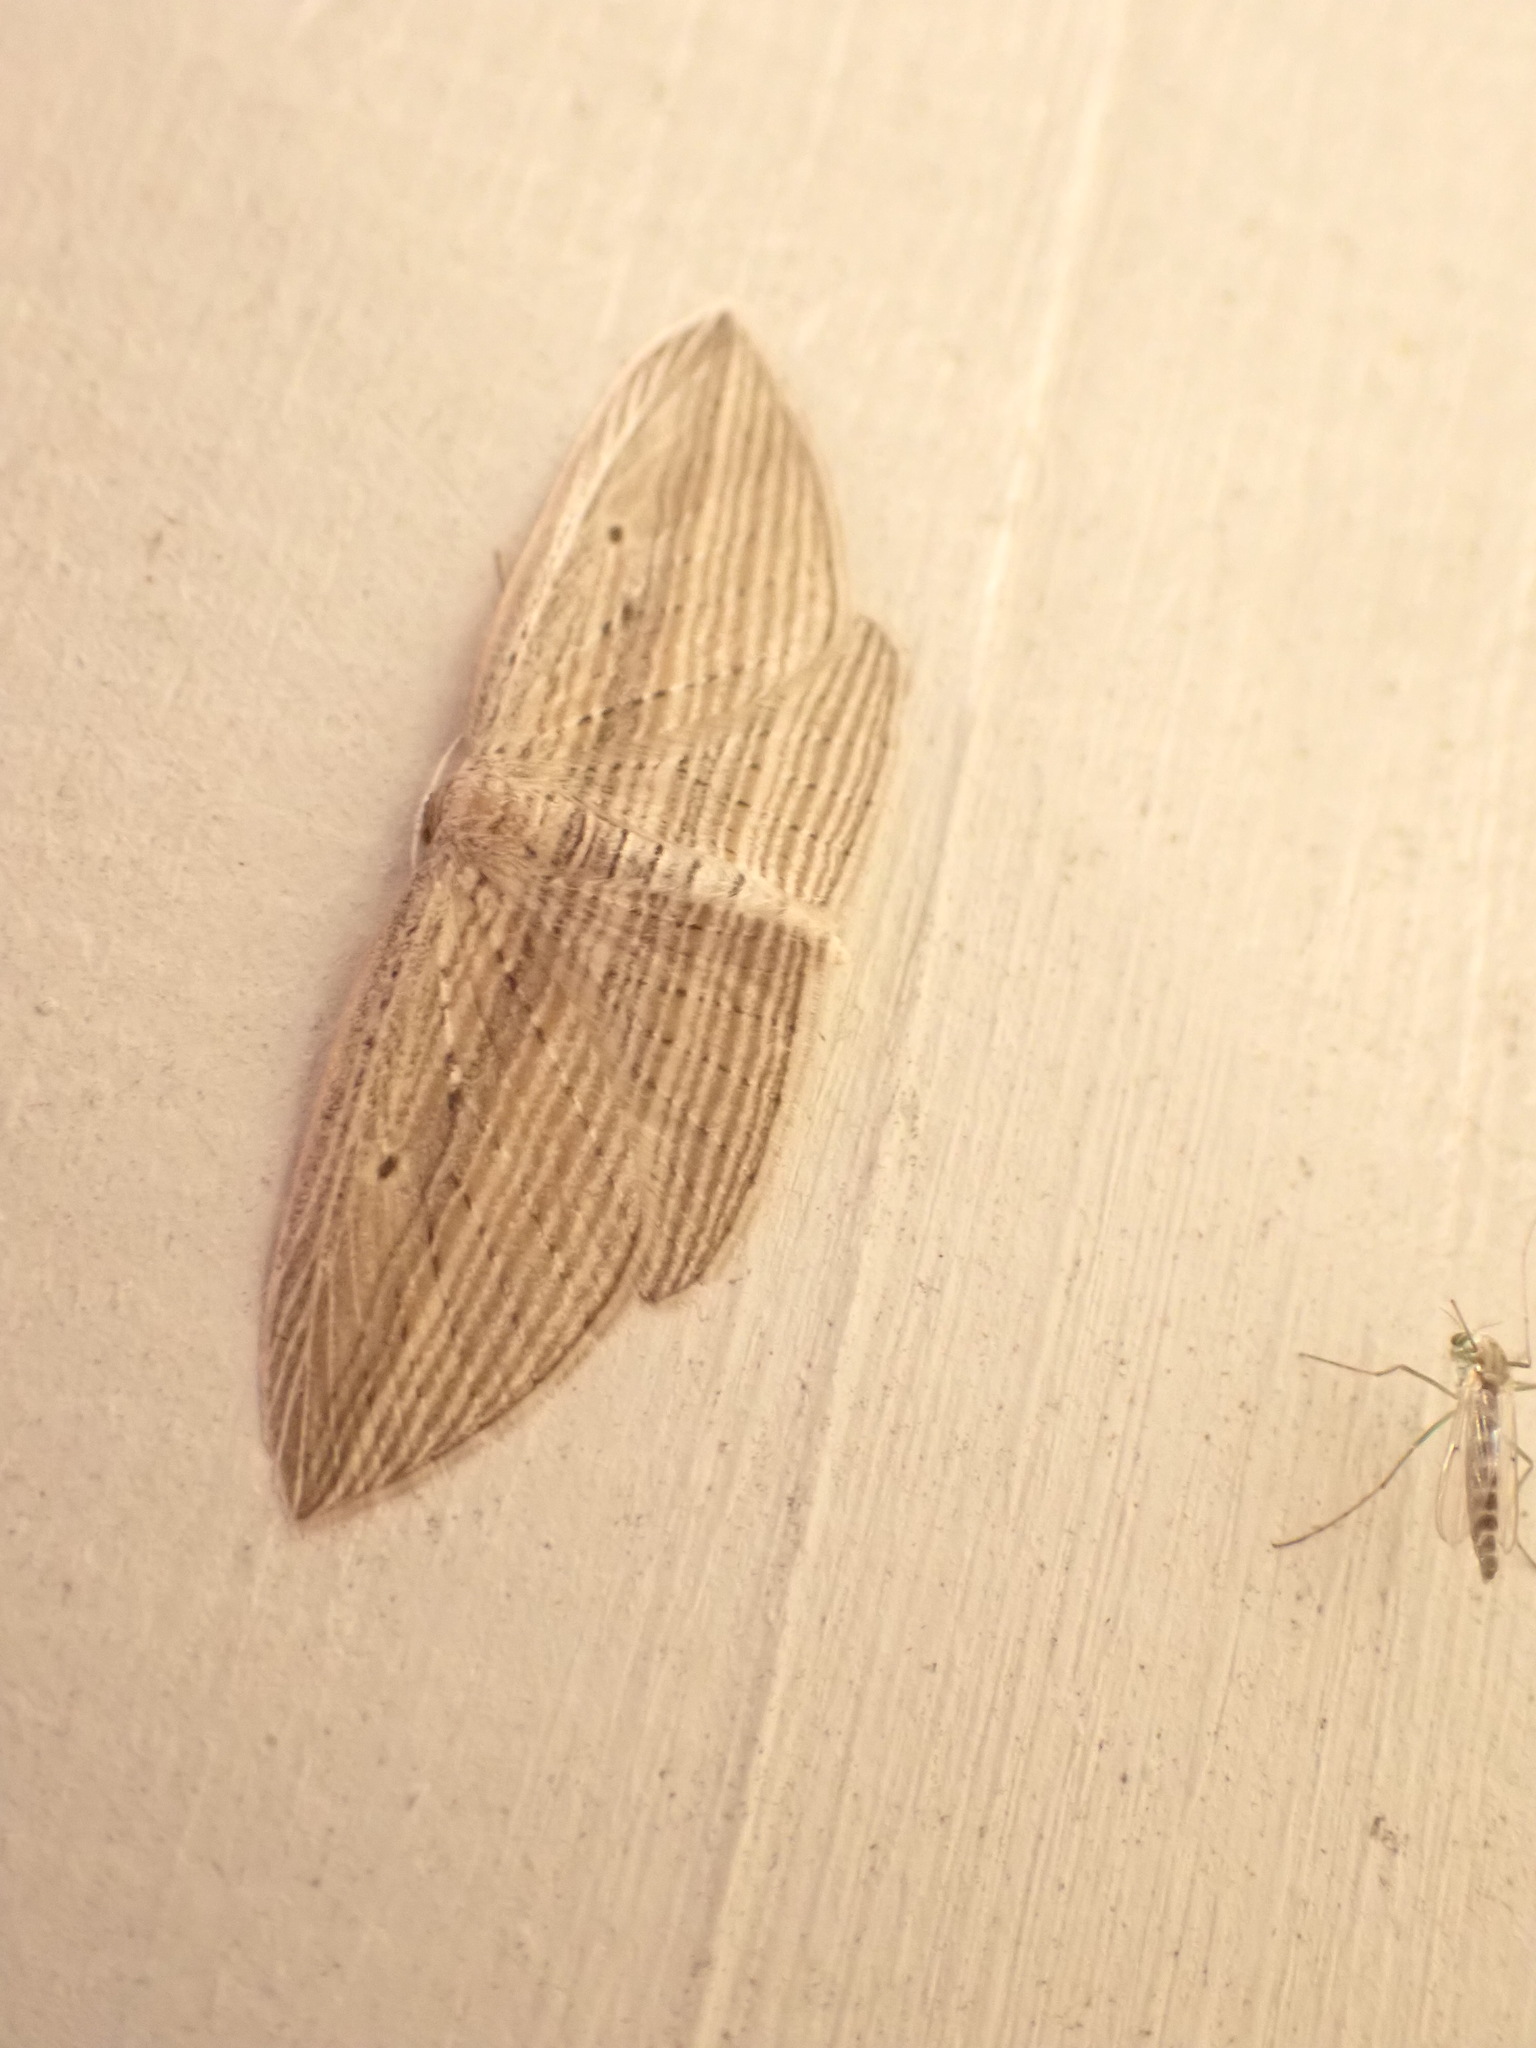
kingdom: Animalia
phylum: Arthropoda
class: Insecta
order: Lepidoptera
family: Geometridae
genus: Epiphryne
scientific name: Epiphryne verriculata
